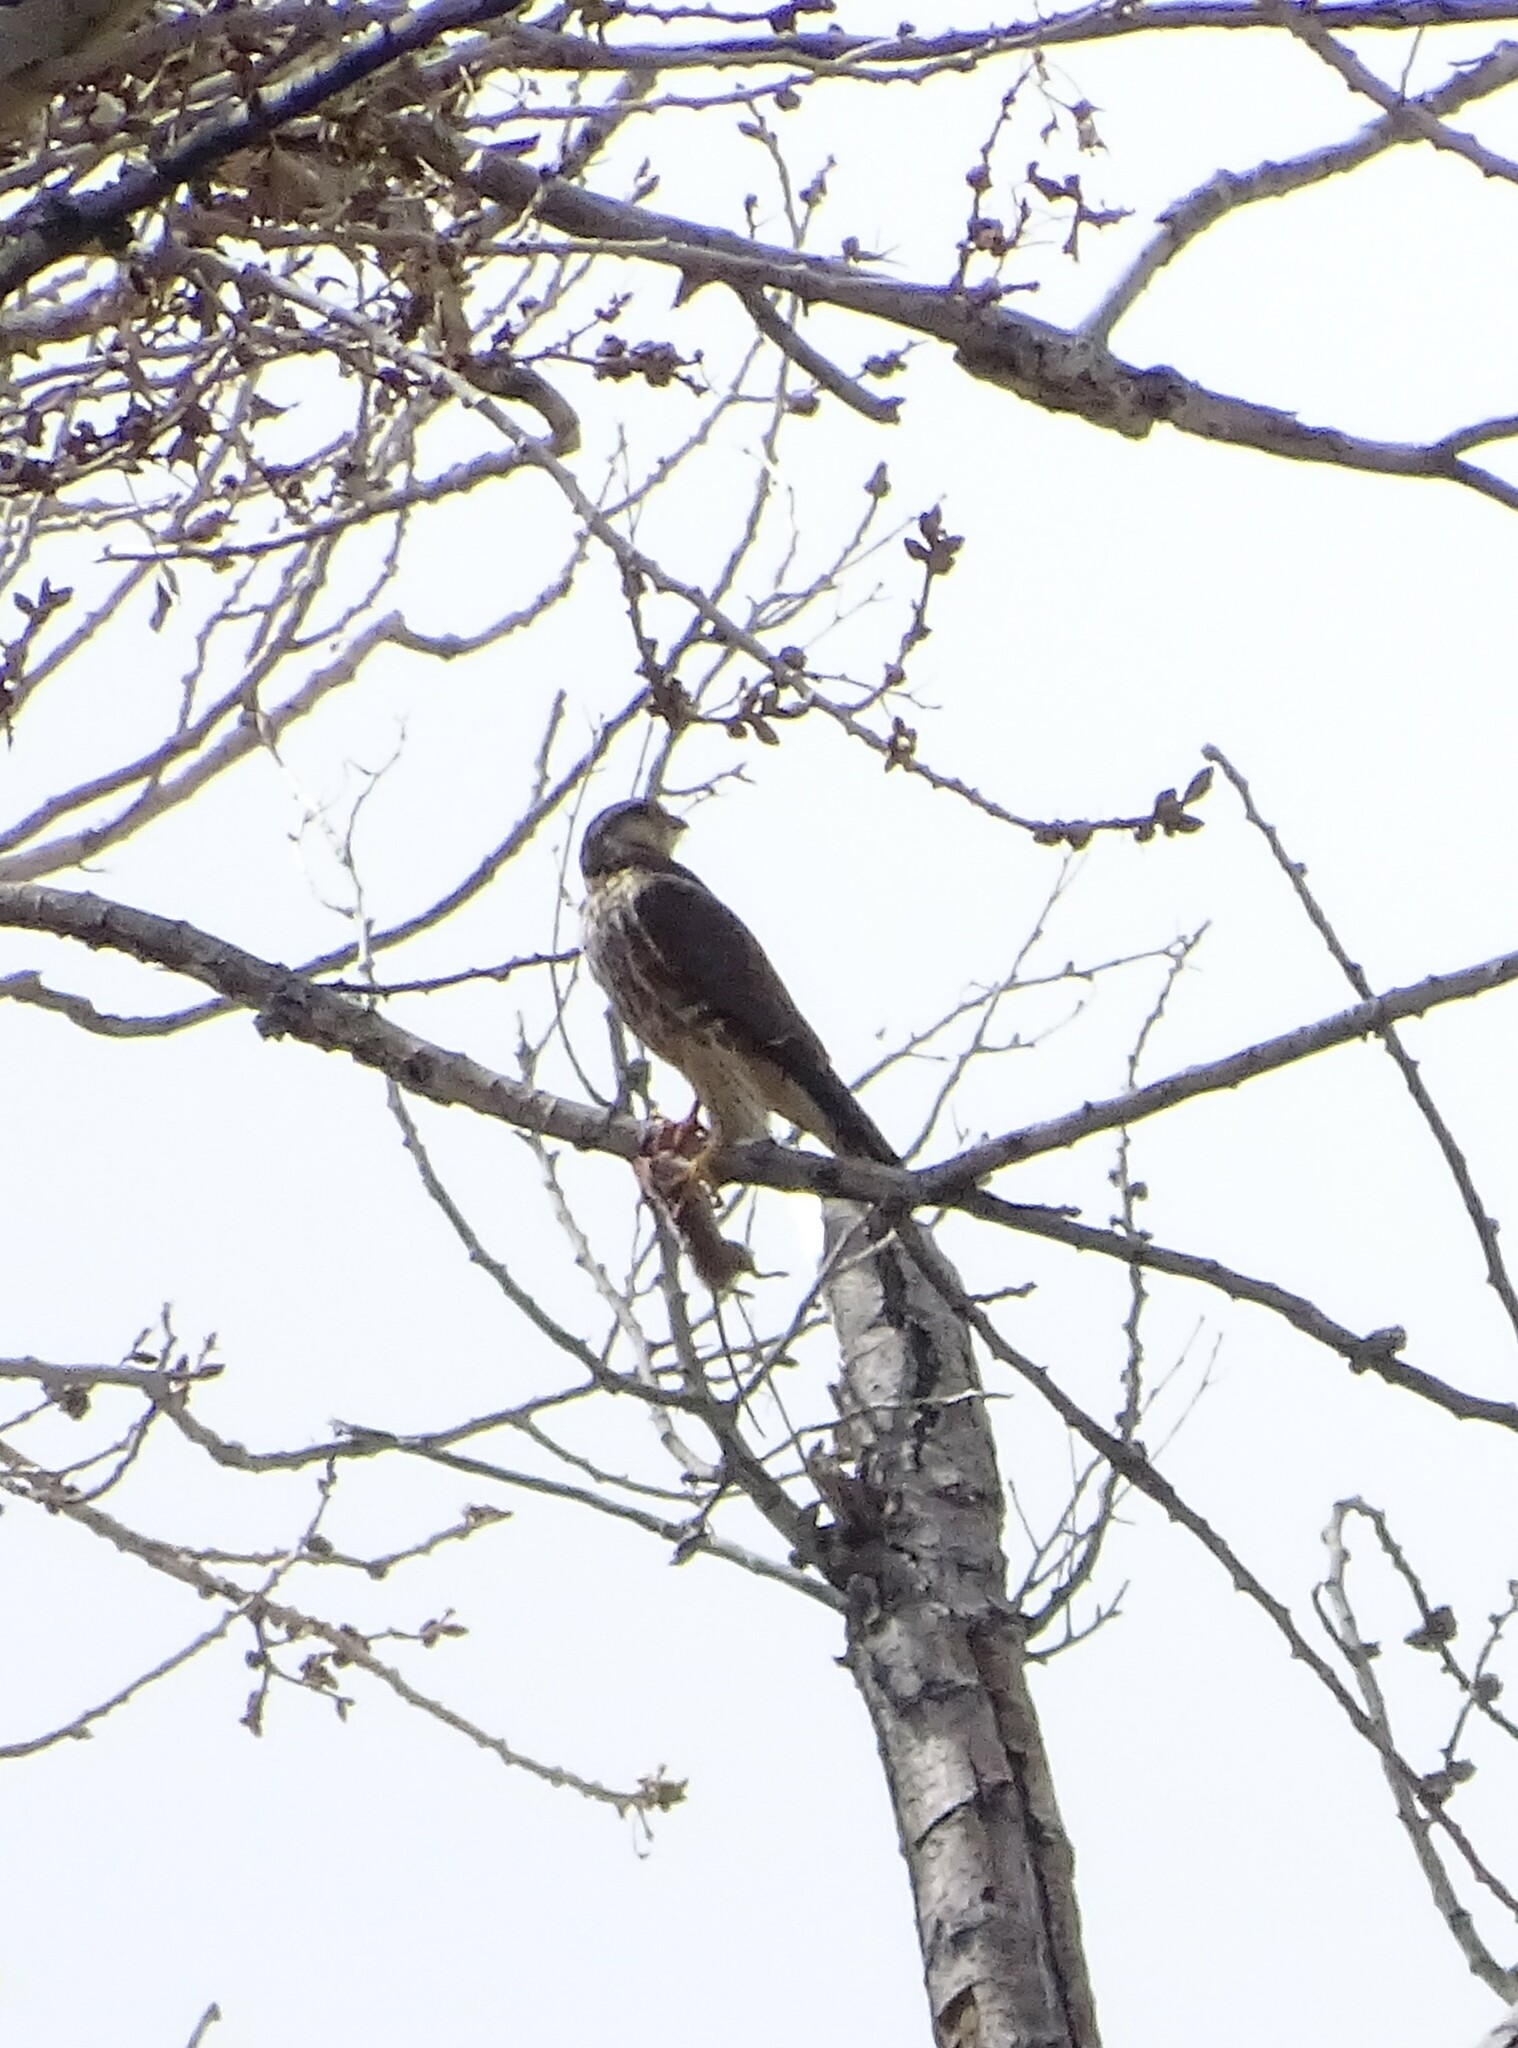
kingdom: Animalia
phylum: Chordata
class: Aves
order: Falconiformes
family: Falconidae
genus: Falco
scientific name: Falco columbarius
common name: Merlin
